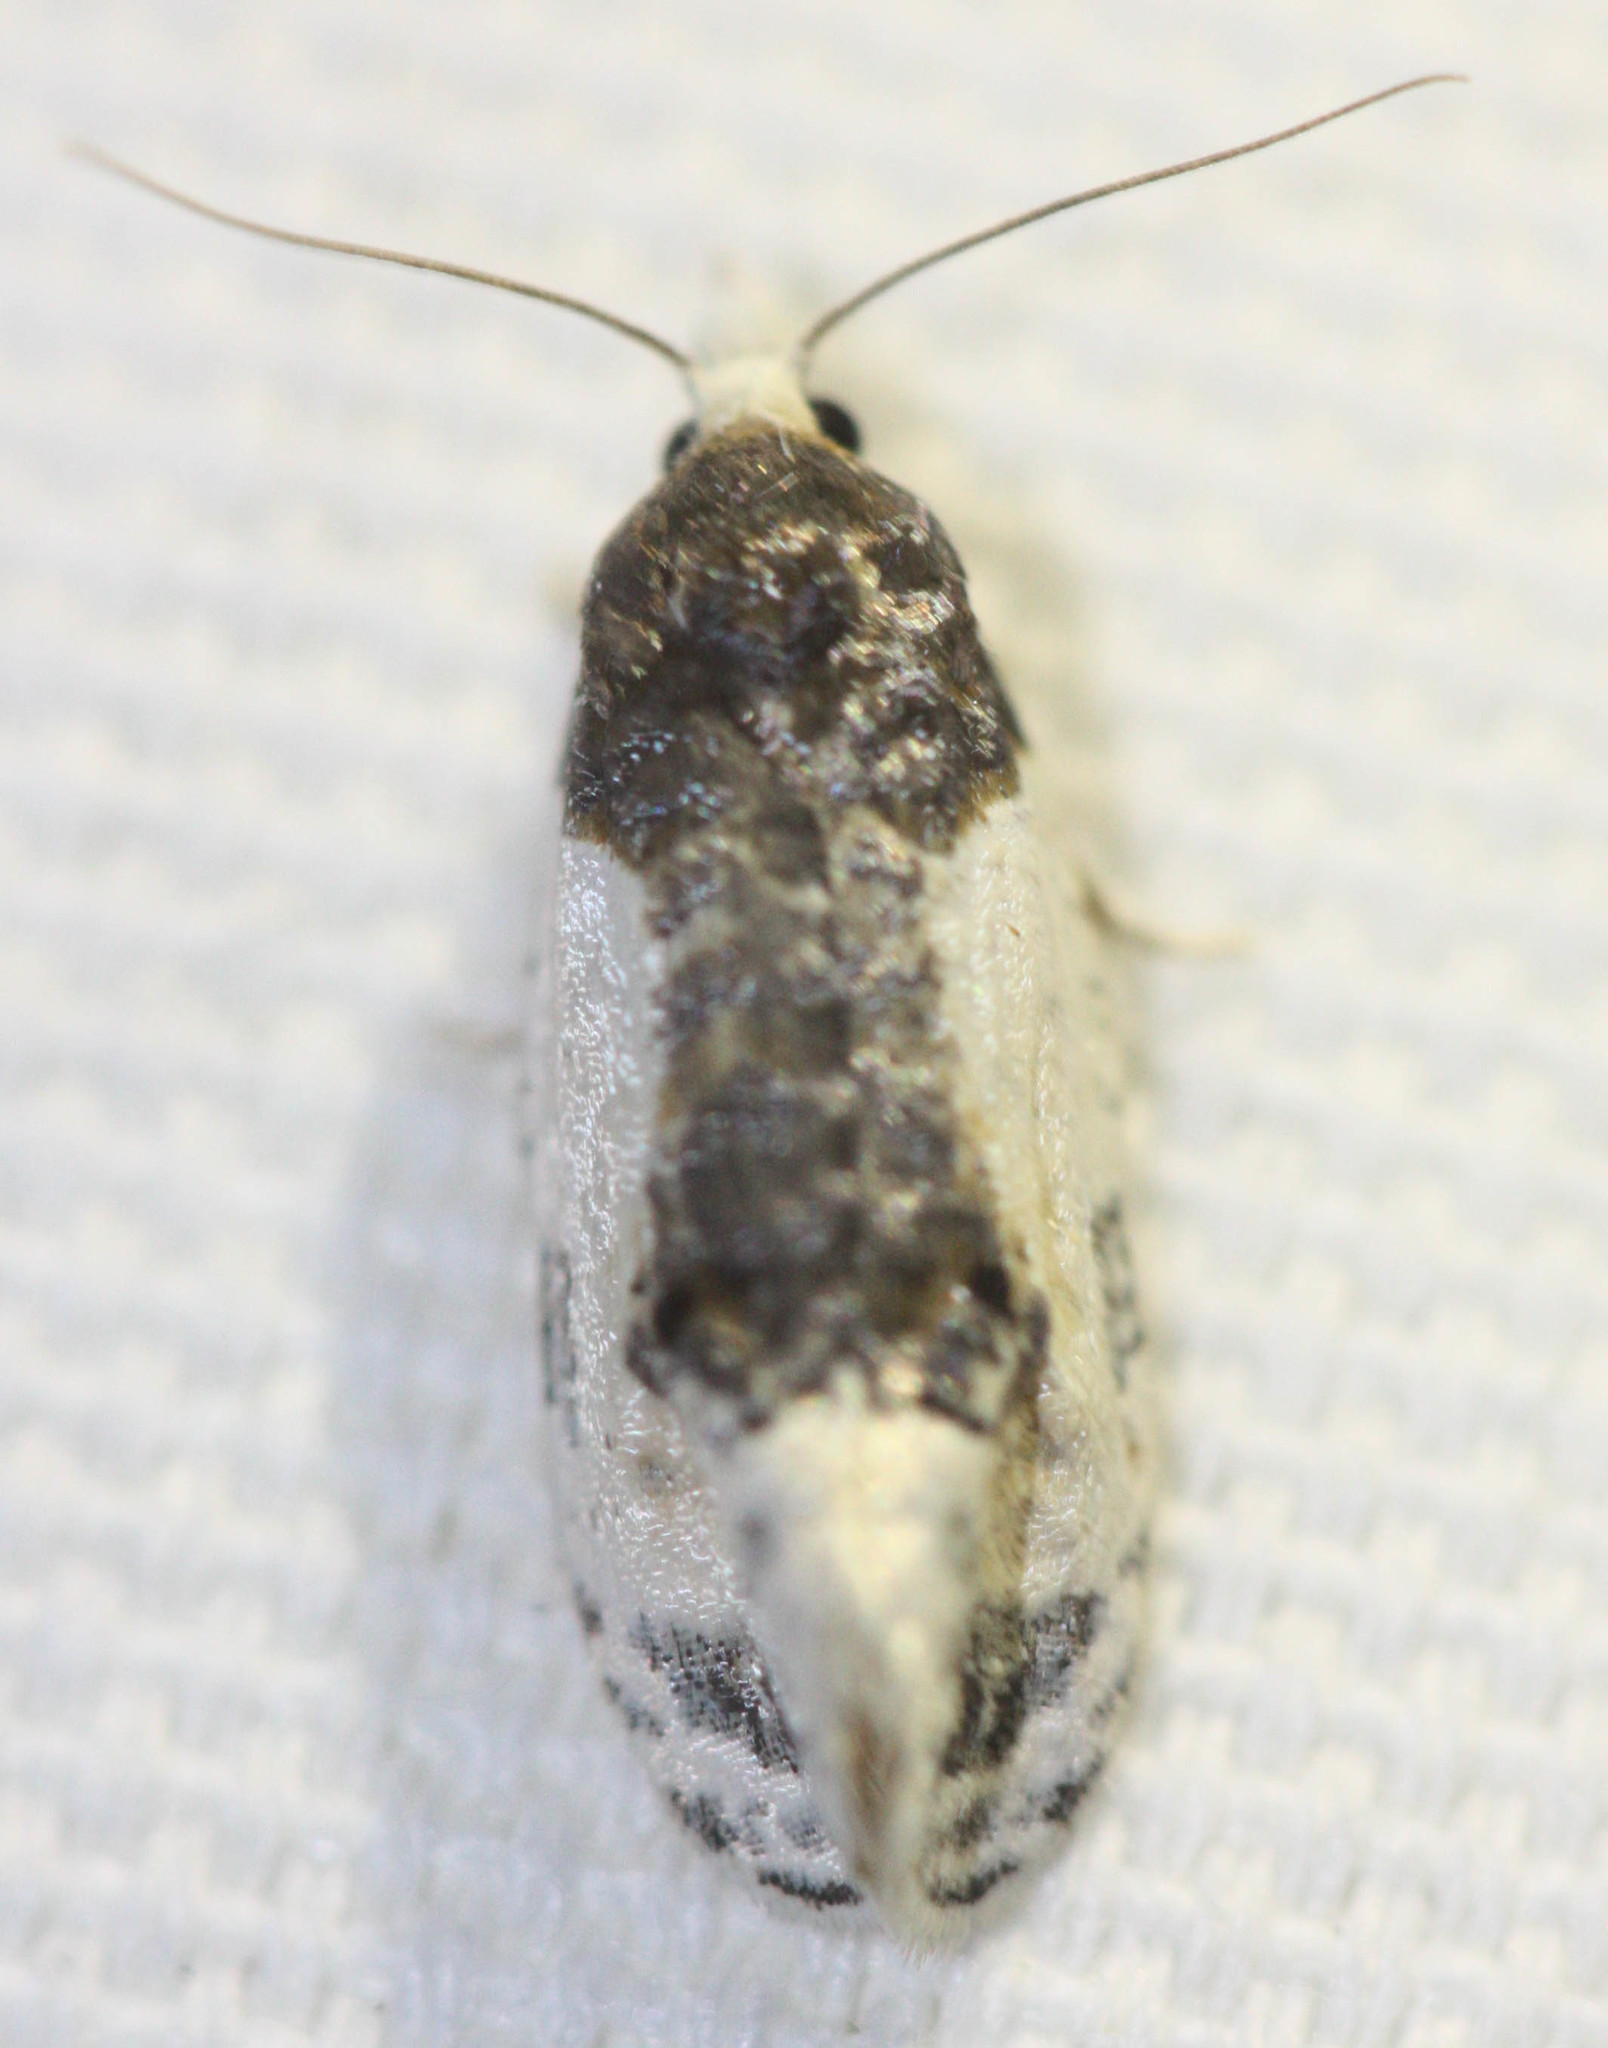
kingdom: Animalia
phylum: Arthropoda
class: Insecta
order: Lepidoptera
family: Tortricidae
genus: Henricus
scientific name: Henricus edwardsiana
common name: Contrasting henricus moth
